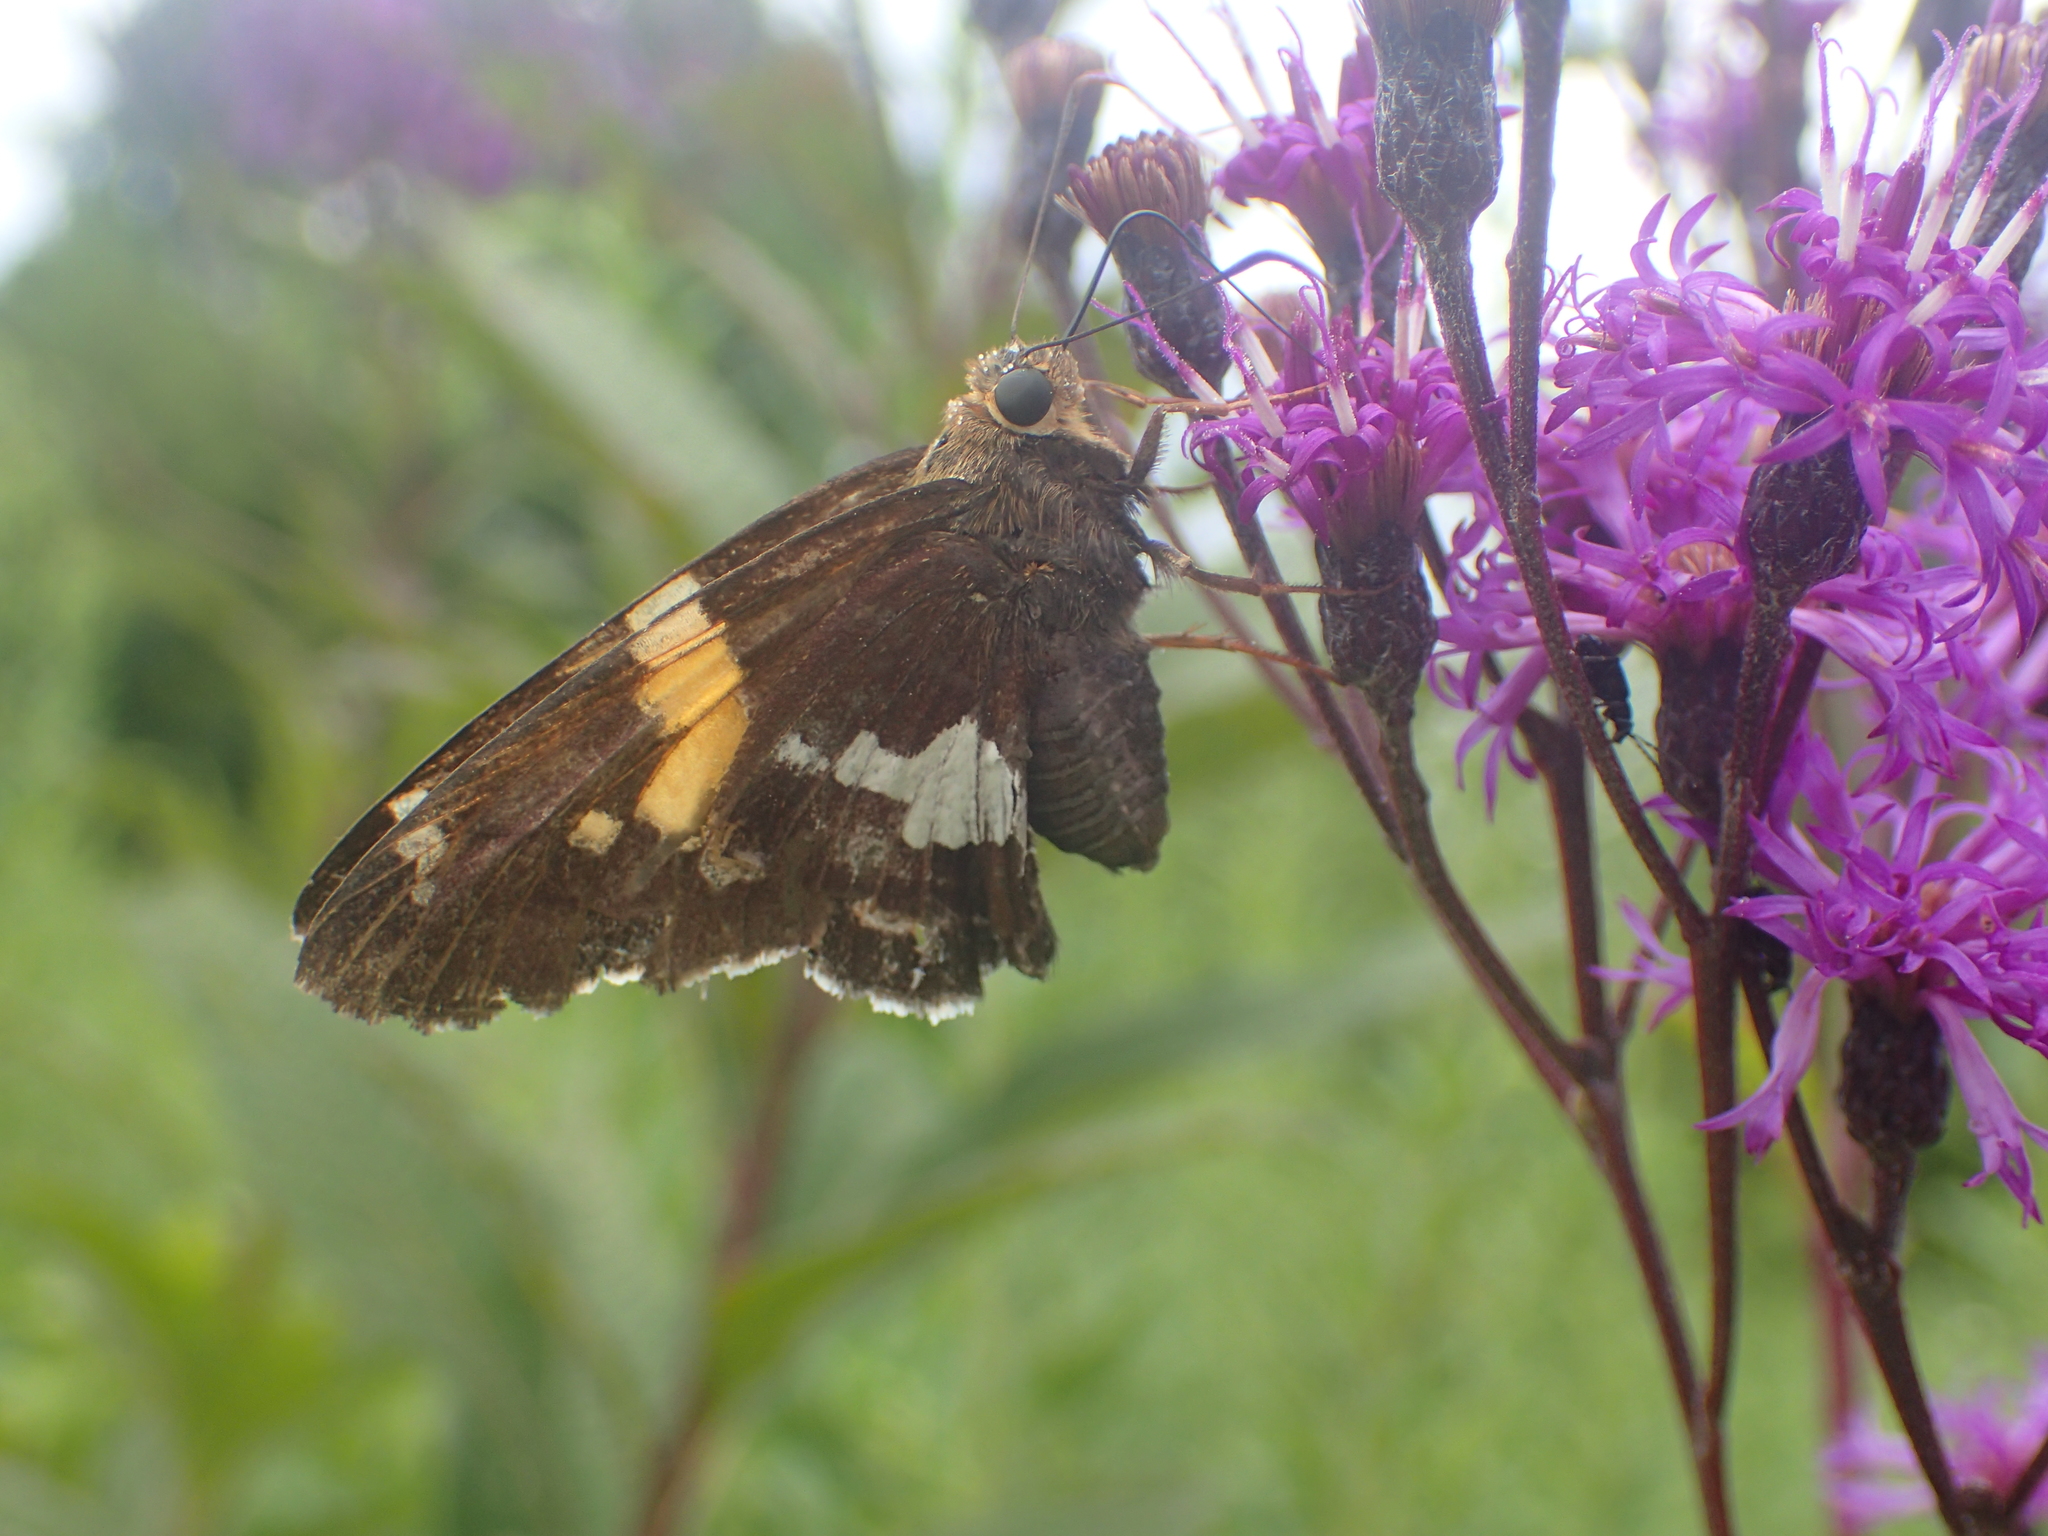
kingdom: Animalia
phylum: Arthropoda
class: Insecta
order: Lepidoptera
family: Hesperiidae
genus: Epargyreus
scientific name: Epargyreus clarus
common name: Silver-spotted skipper
